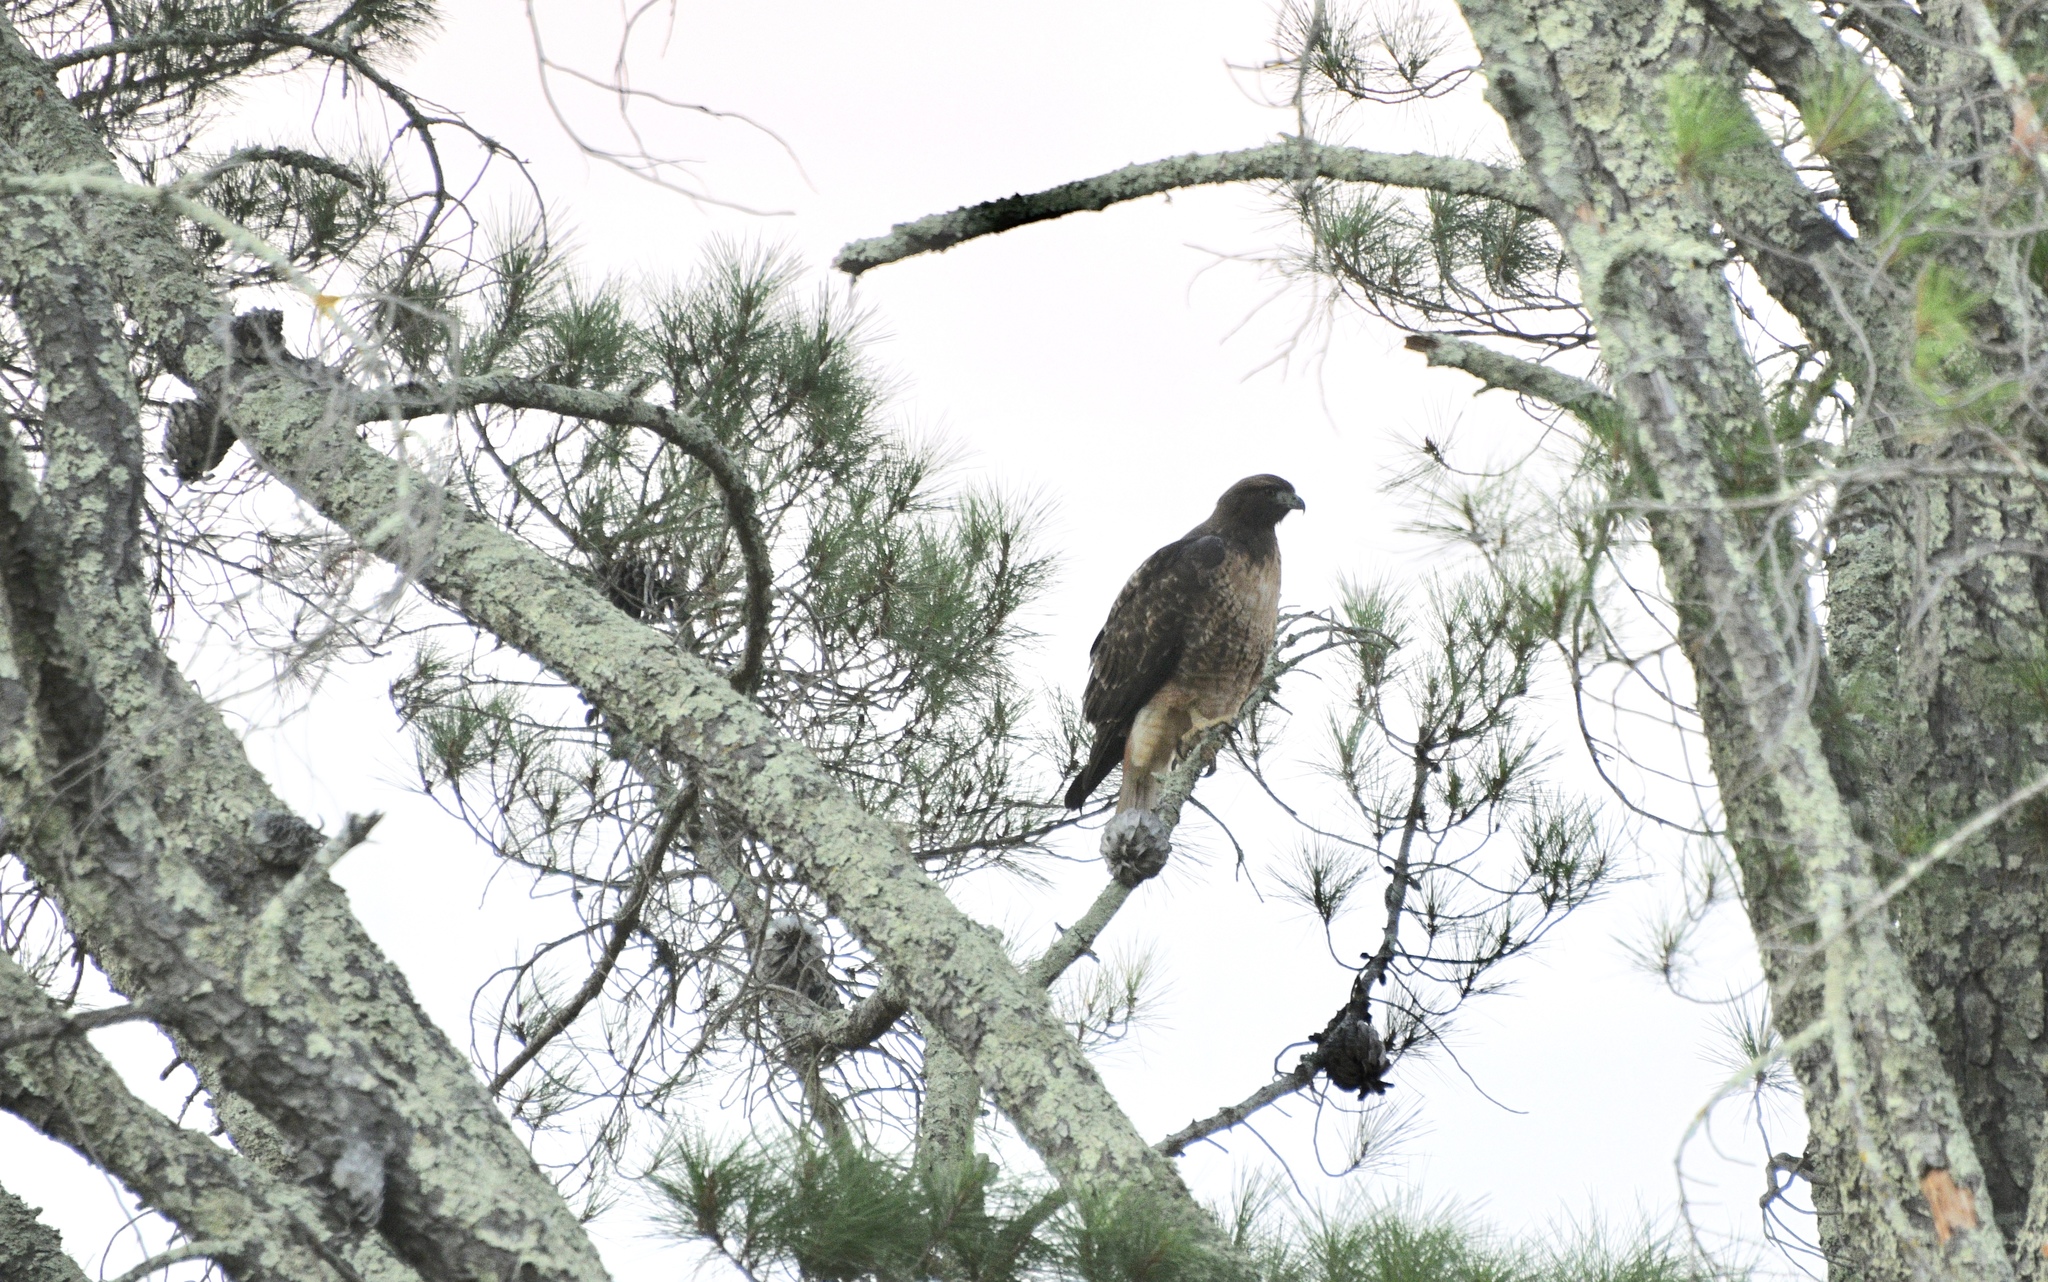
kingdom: Animalia
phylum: Chordata
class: Aves
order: Accipitriformes
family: Accipitridae
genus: Buteo
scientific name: Buteo jamaicensis
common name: Red-tailed hawk
